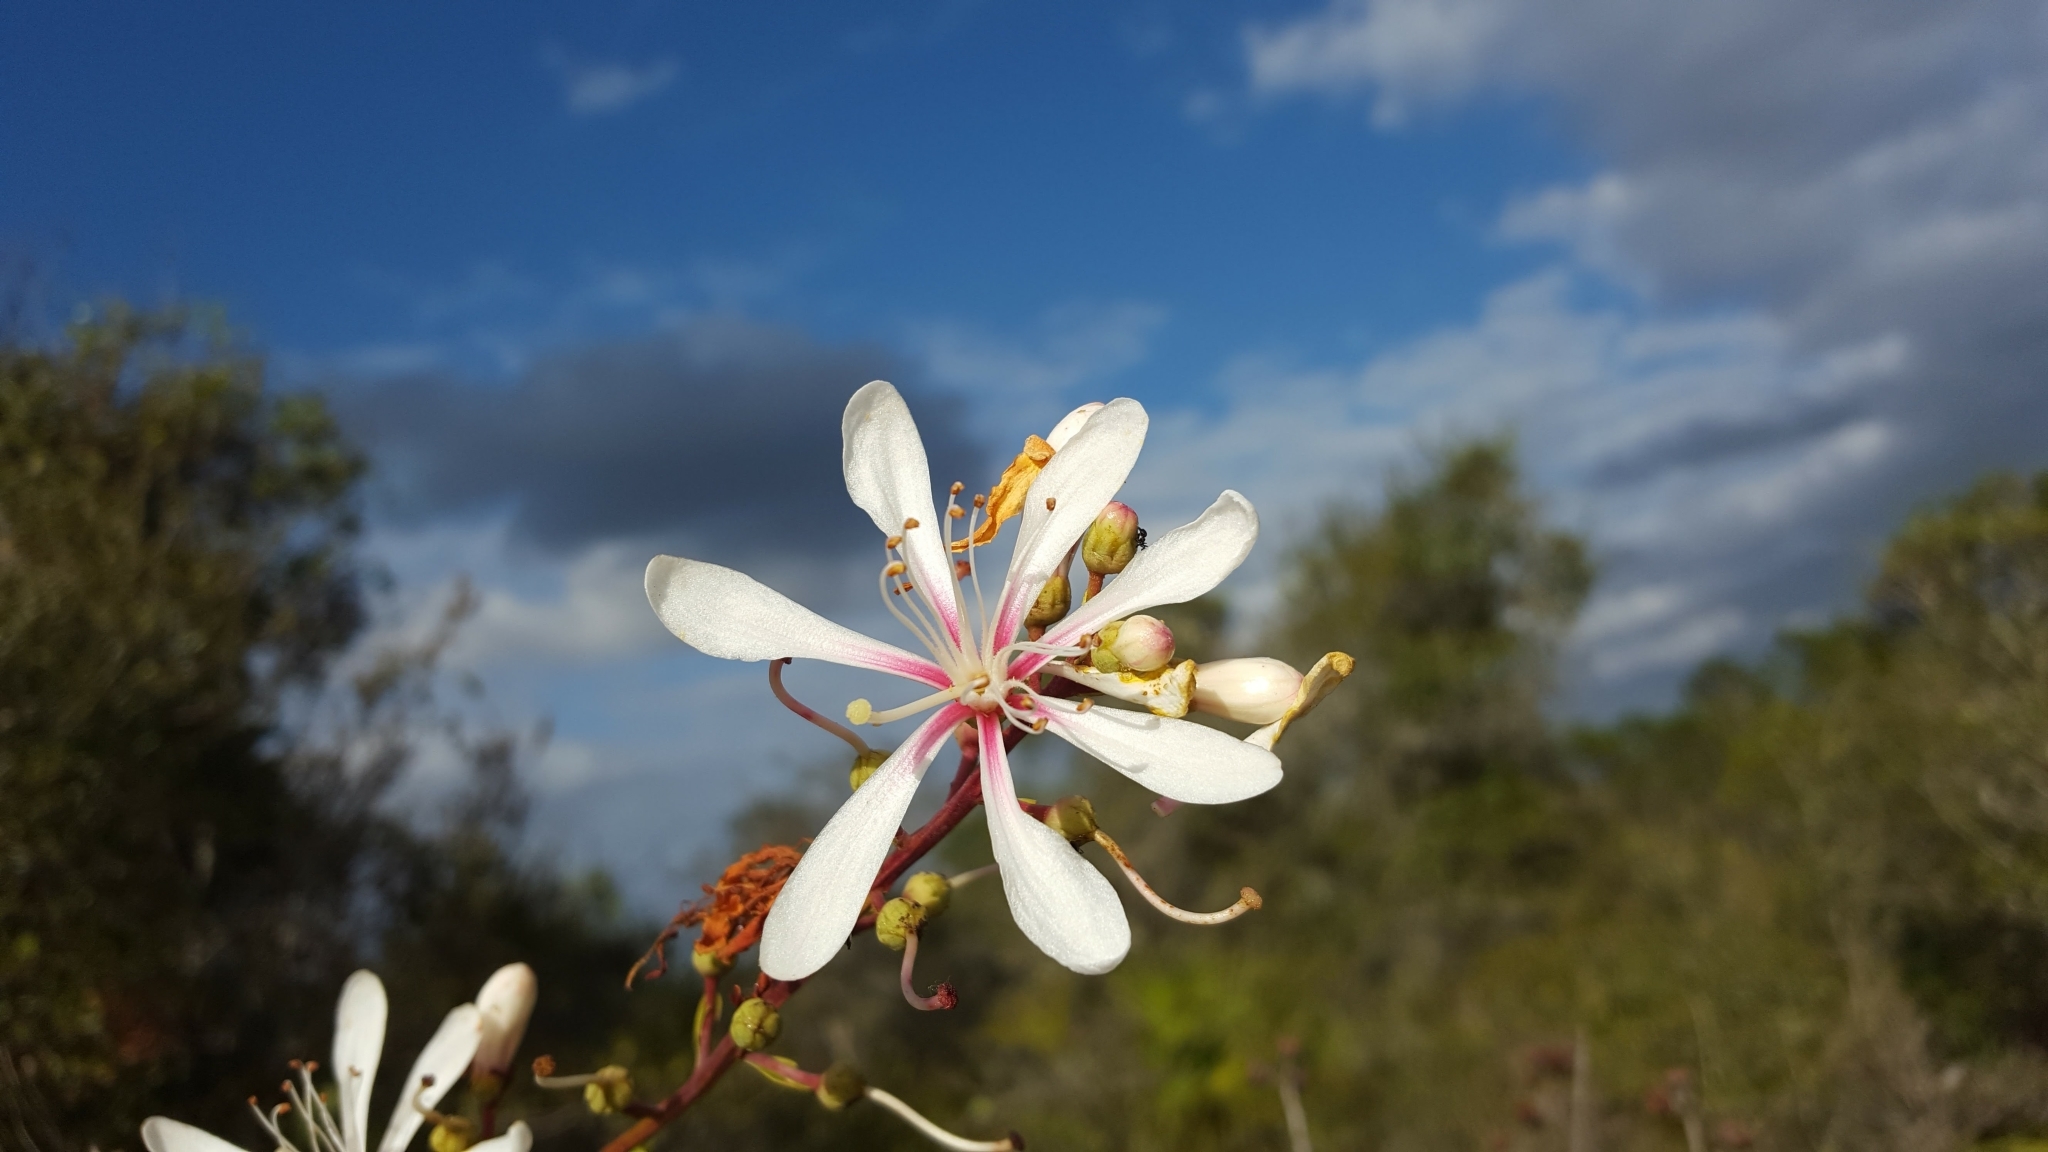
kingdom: Plantae
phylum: Tracheophyta
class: Magnoliopsida
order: Ericales
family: Ericaceae
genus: Bejaria
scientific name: Bejaria racemosa
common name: Tarflower
